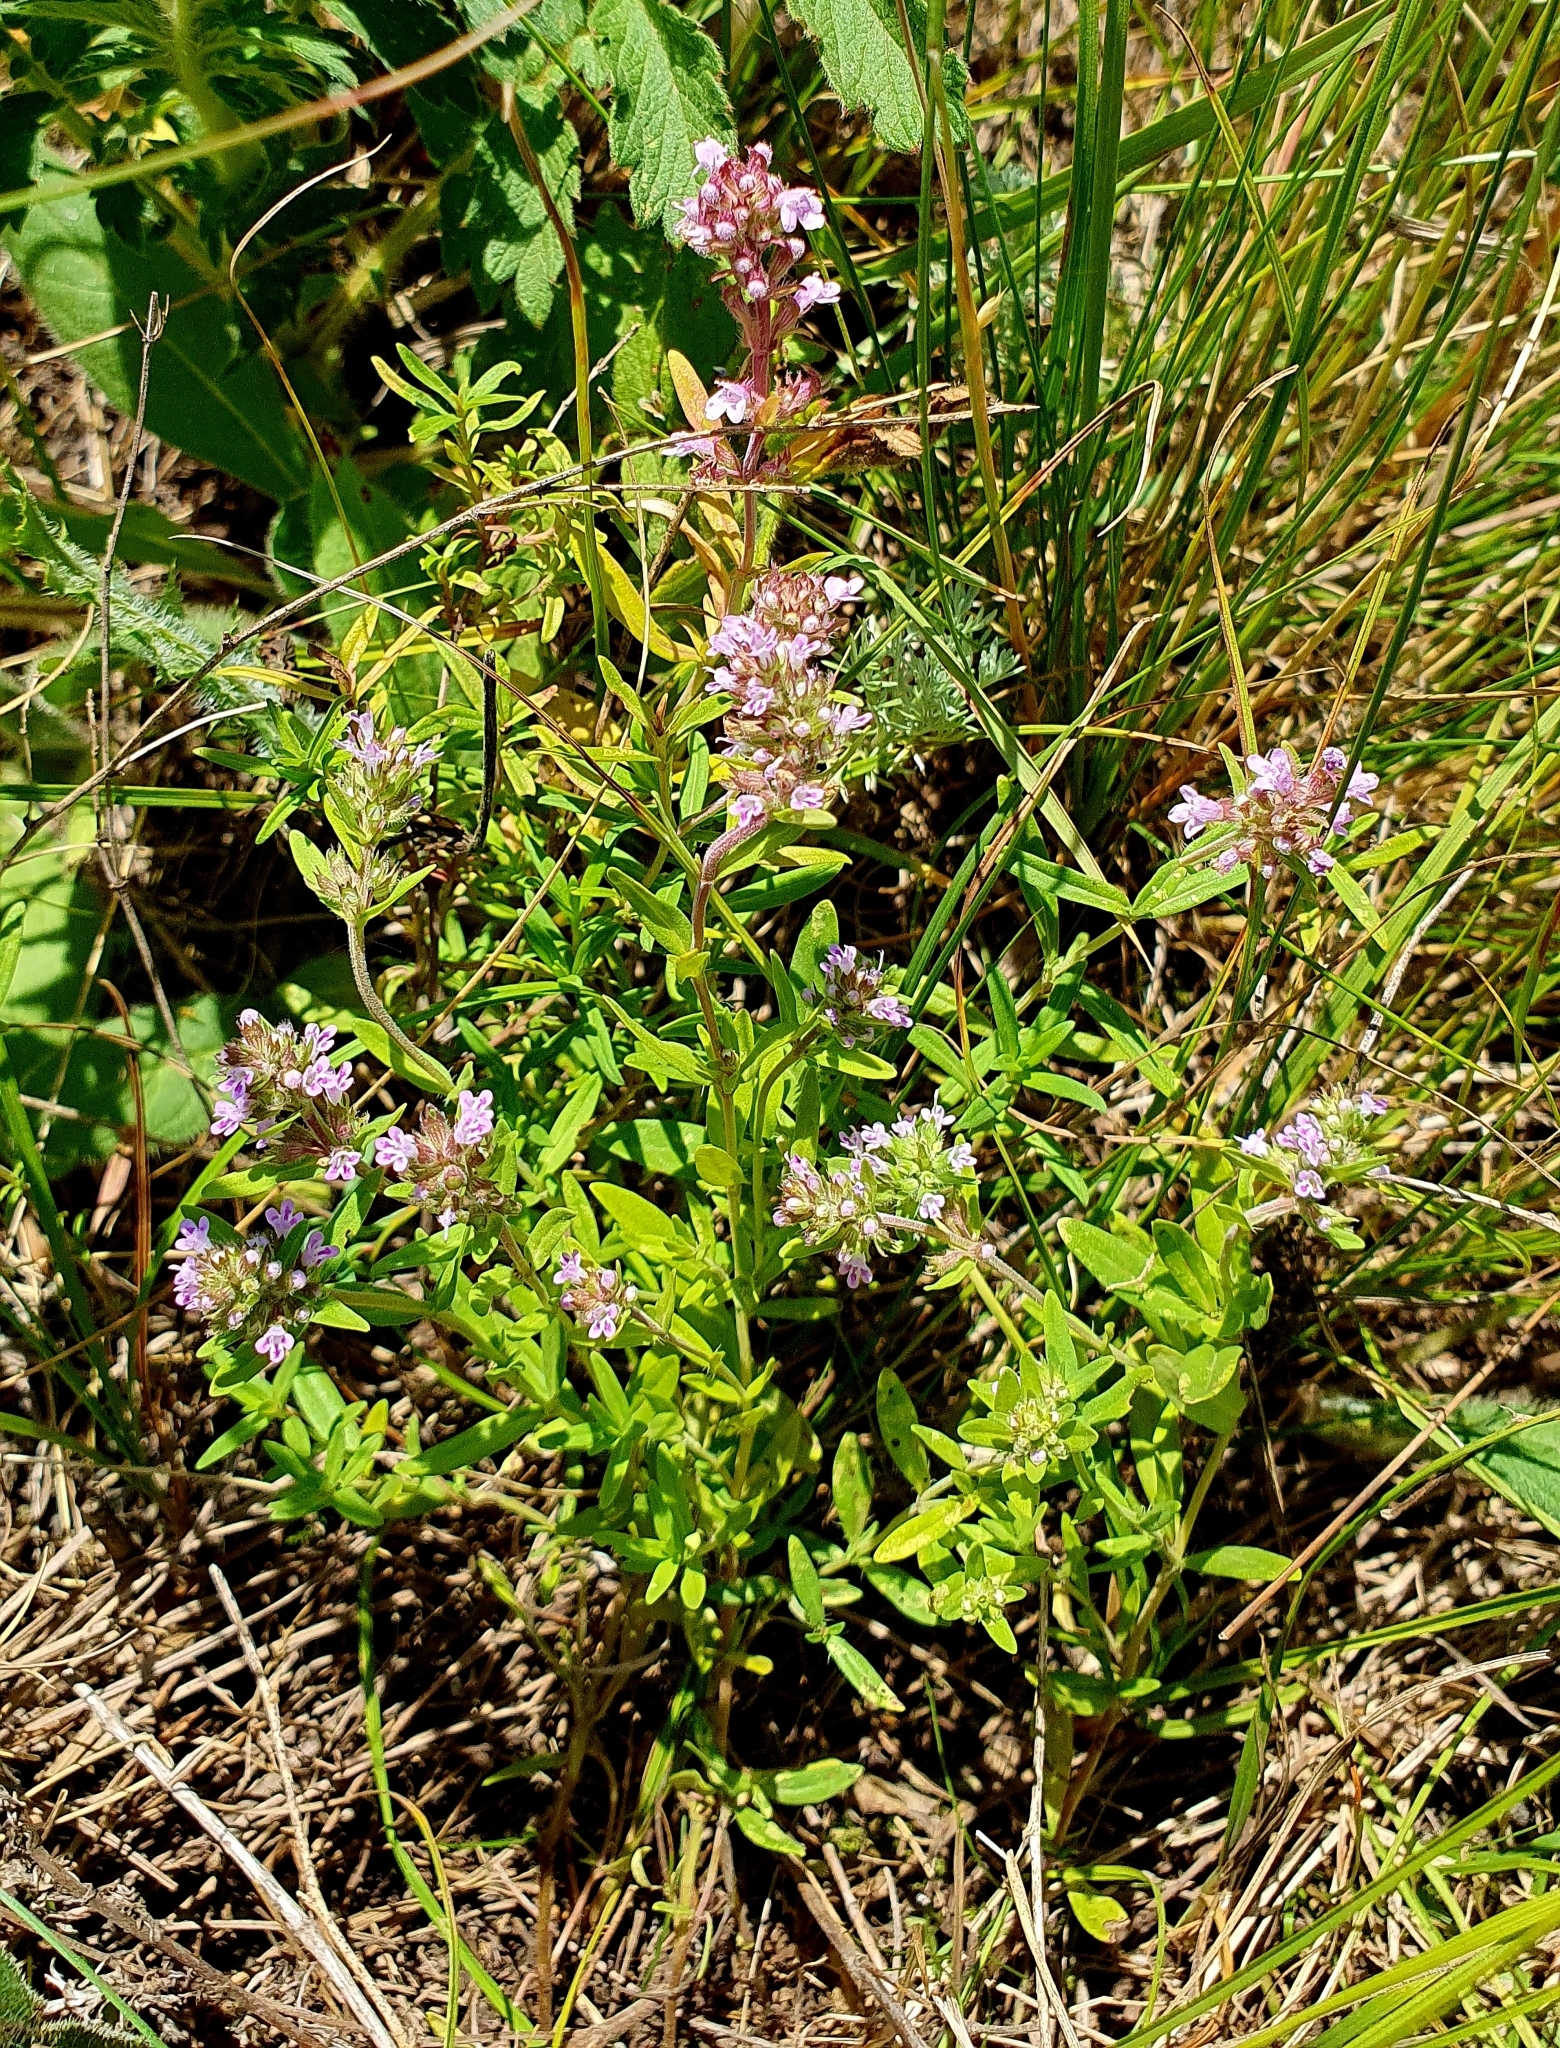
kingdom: Plantae
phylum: Tracheophyta
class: Magnoliopsida
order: Lamiales
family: Lamiaceae
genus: Thymus
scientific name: Thymus pannonicus
